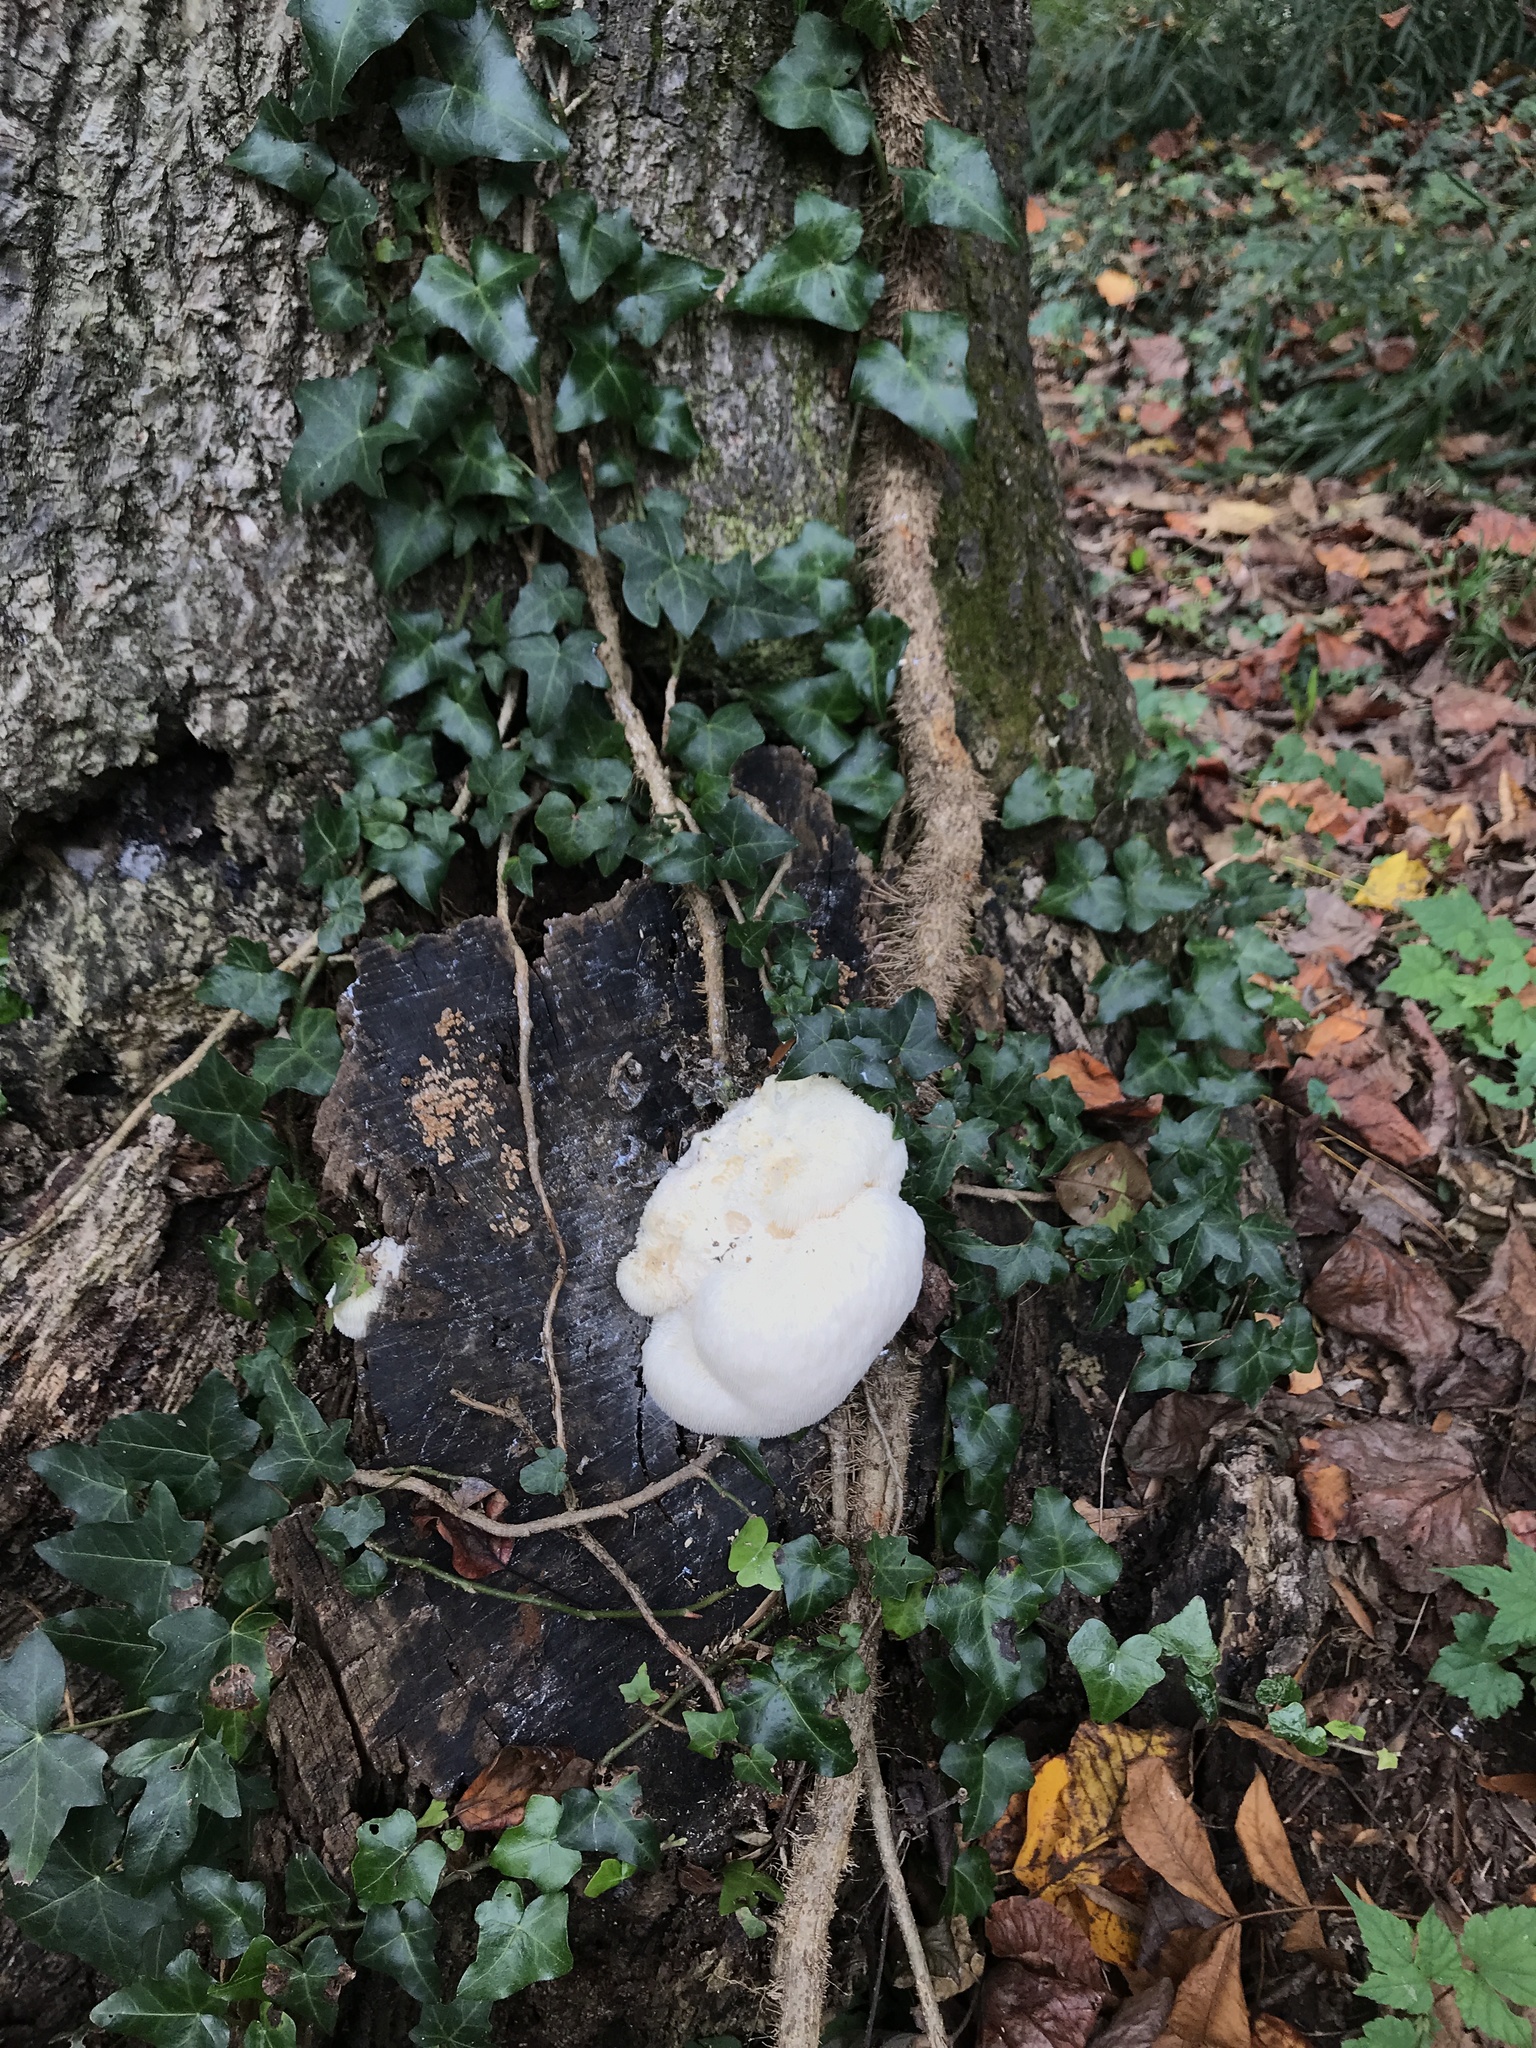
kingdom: Fungi
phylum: Basidiomycota
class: Agaricomycetes
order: Russulales
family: Hericiaceae
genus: Hericium
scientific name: Hericium erinaceus
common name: Bearded tooth
